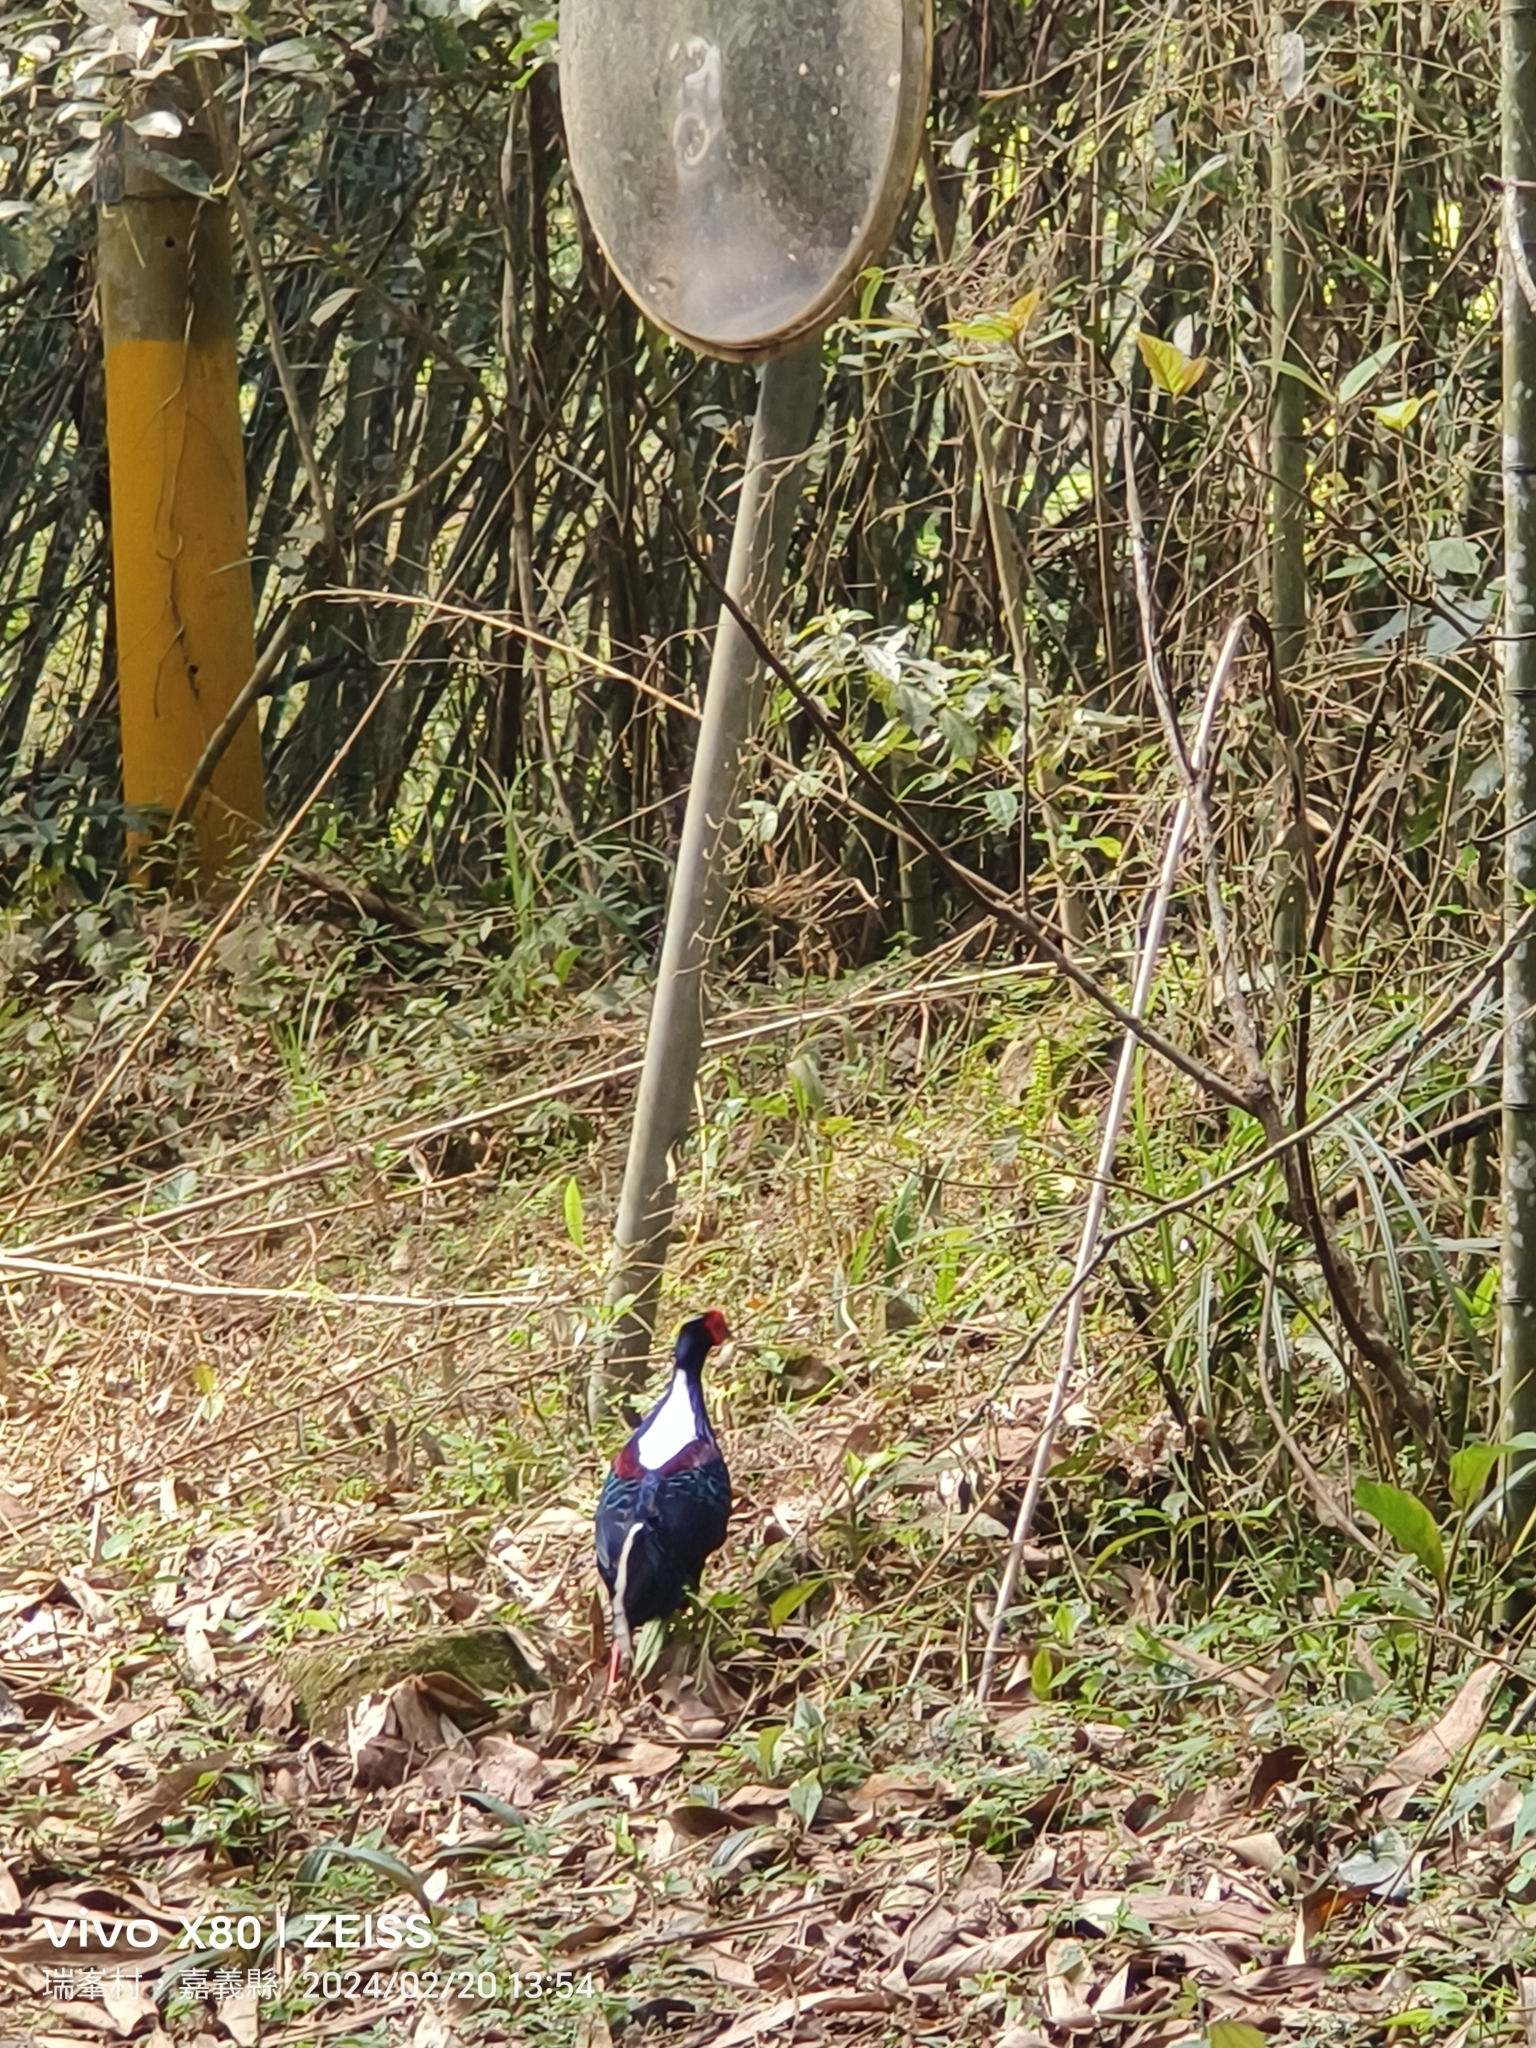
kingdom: Animalia
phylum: Chordata
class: Aves
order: Galliformes
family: Phasianidae
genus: Lophura
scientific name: Lophura swinhoii
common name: Swinhoe's pheasant
